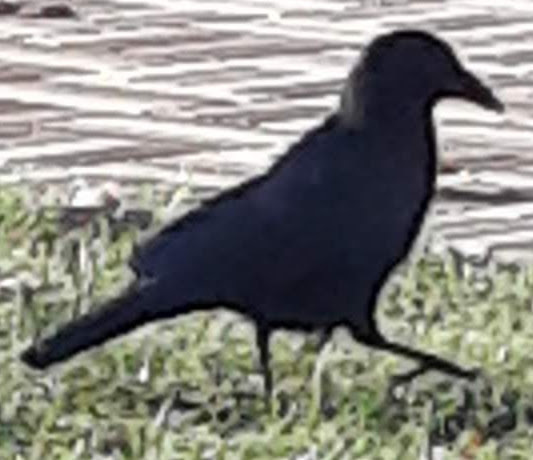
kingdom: Animalia
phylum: Chordata
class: Aves
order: Passeriformes
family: Corvidae
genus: Corvus
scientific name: Corvus brachyrhynchos
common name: American crow
